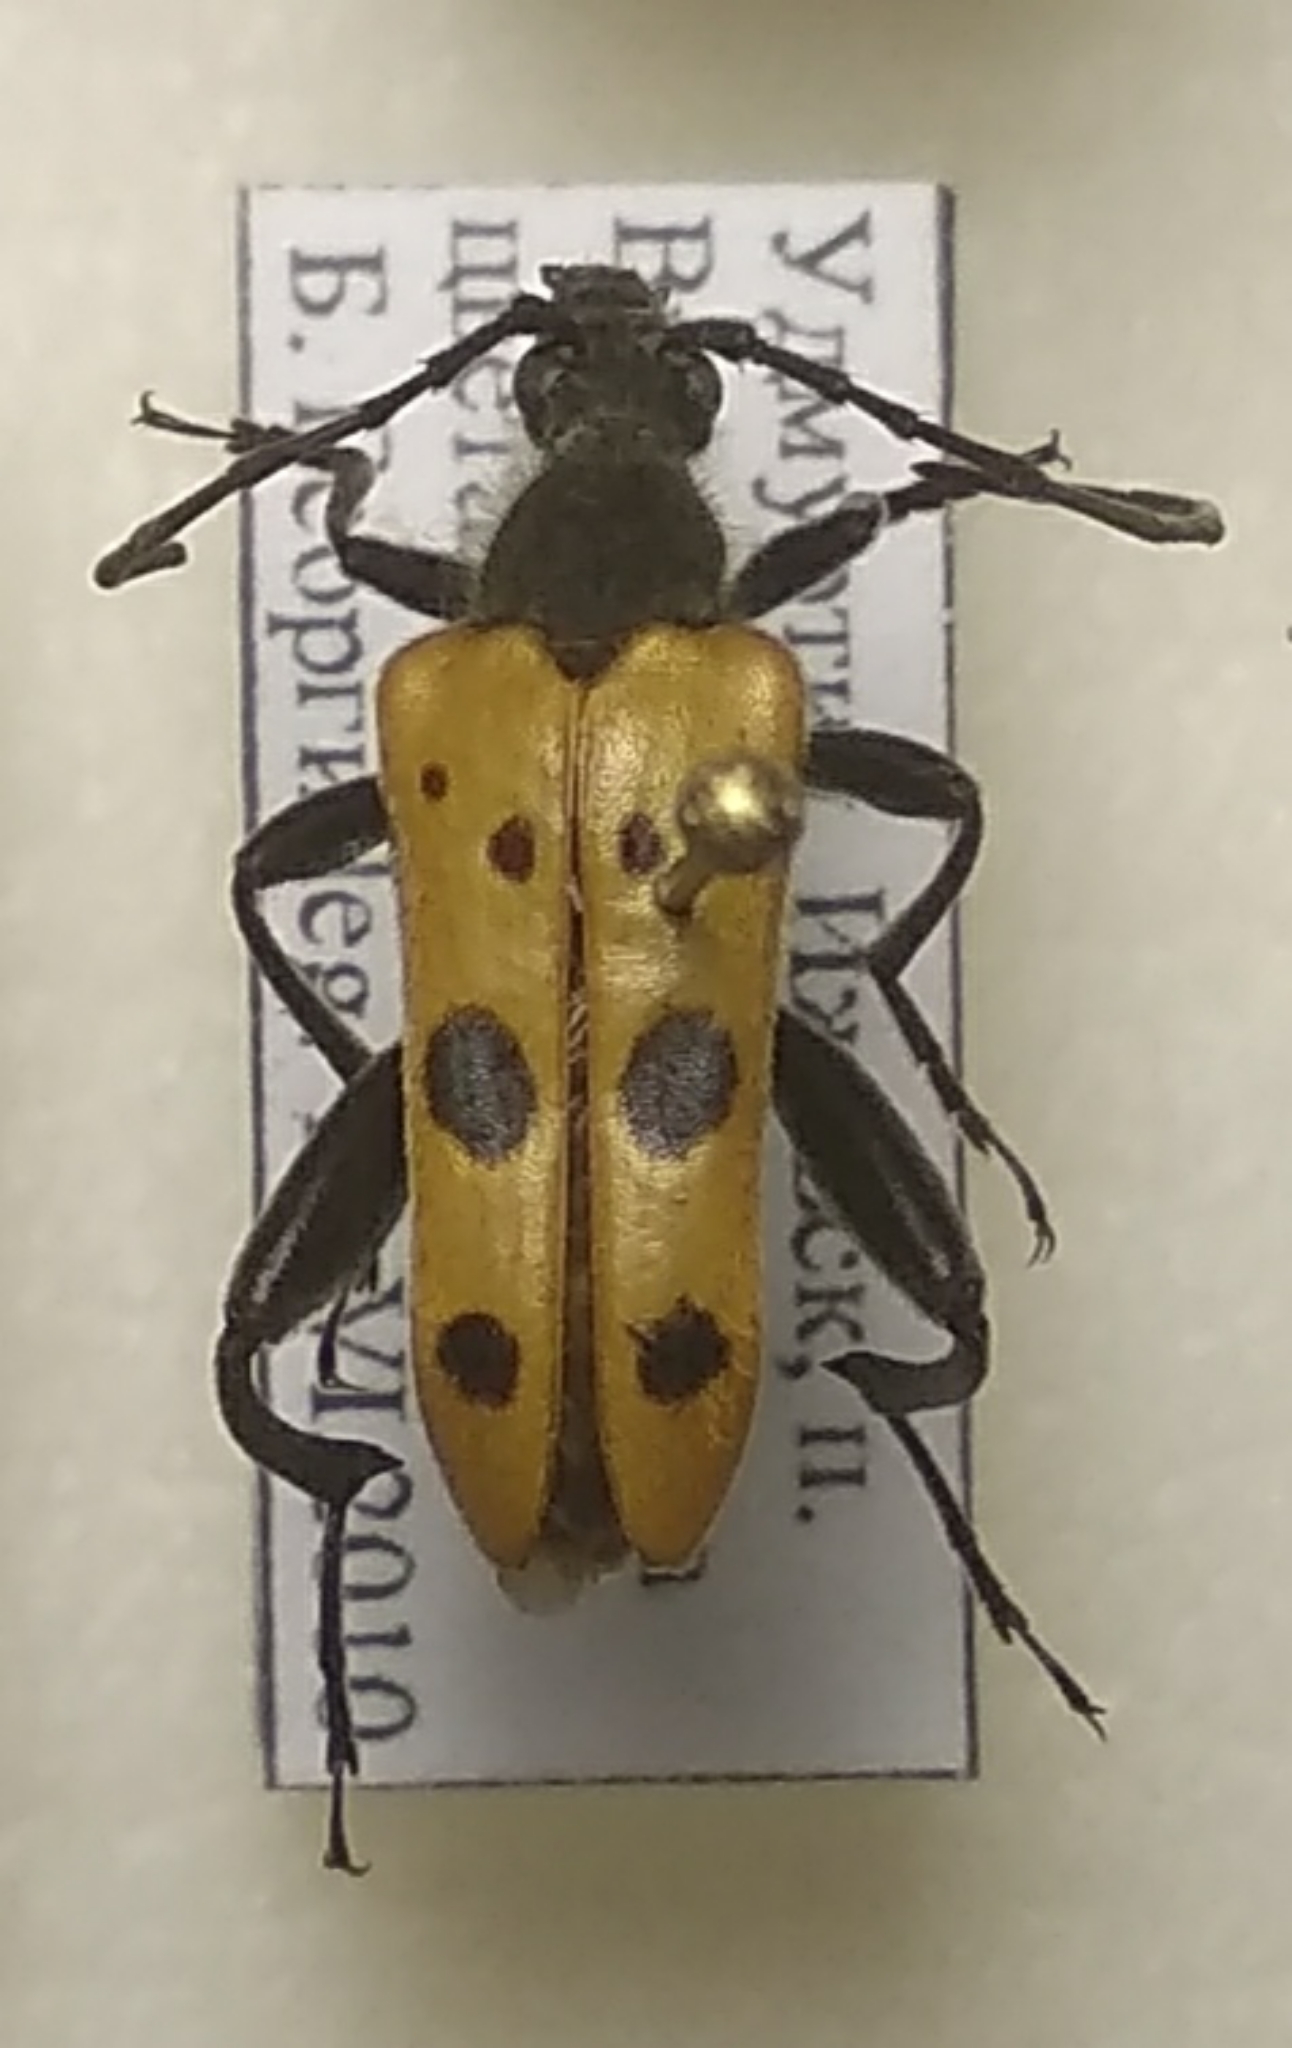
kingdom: Animalia
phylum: Arthropoda
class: Insecta
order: Coleoptera
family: Cerambycidae
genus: Oedecnema
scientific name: Oedecnema gebleri
